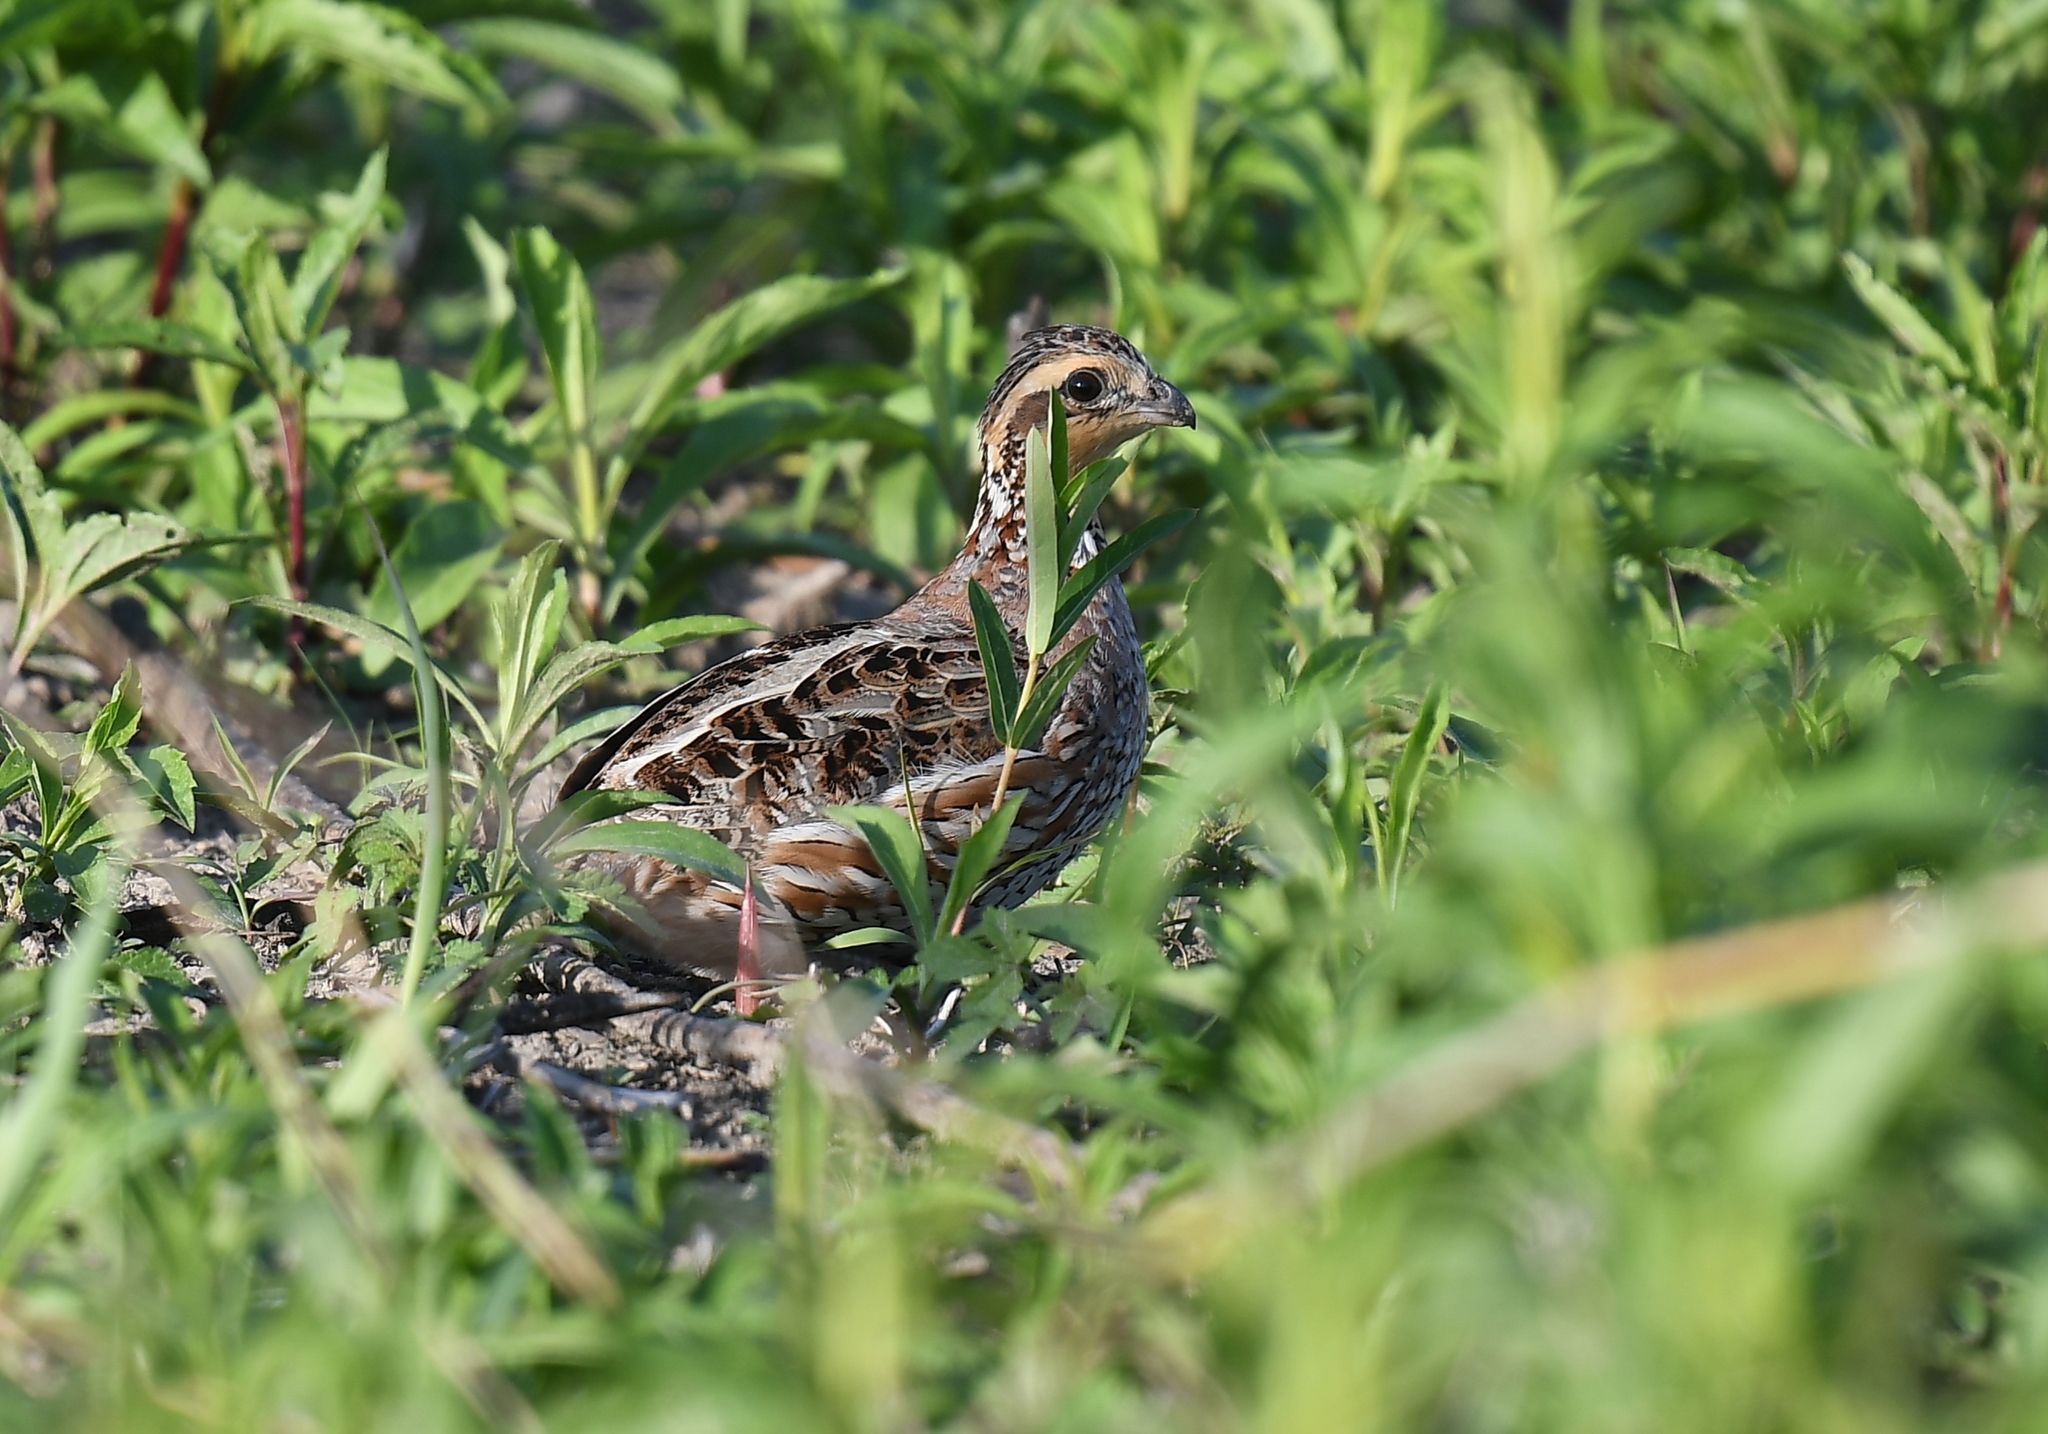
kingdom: Animalia
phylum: Chordata
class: Aves
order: Galliformes
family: Odontophoridae
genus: Colinus
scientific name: Colinus virginianus
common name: Northern bobwhite
